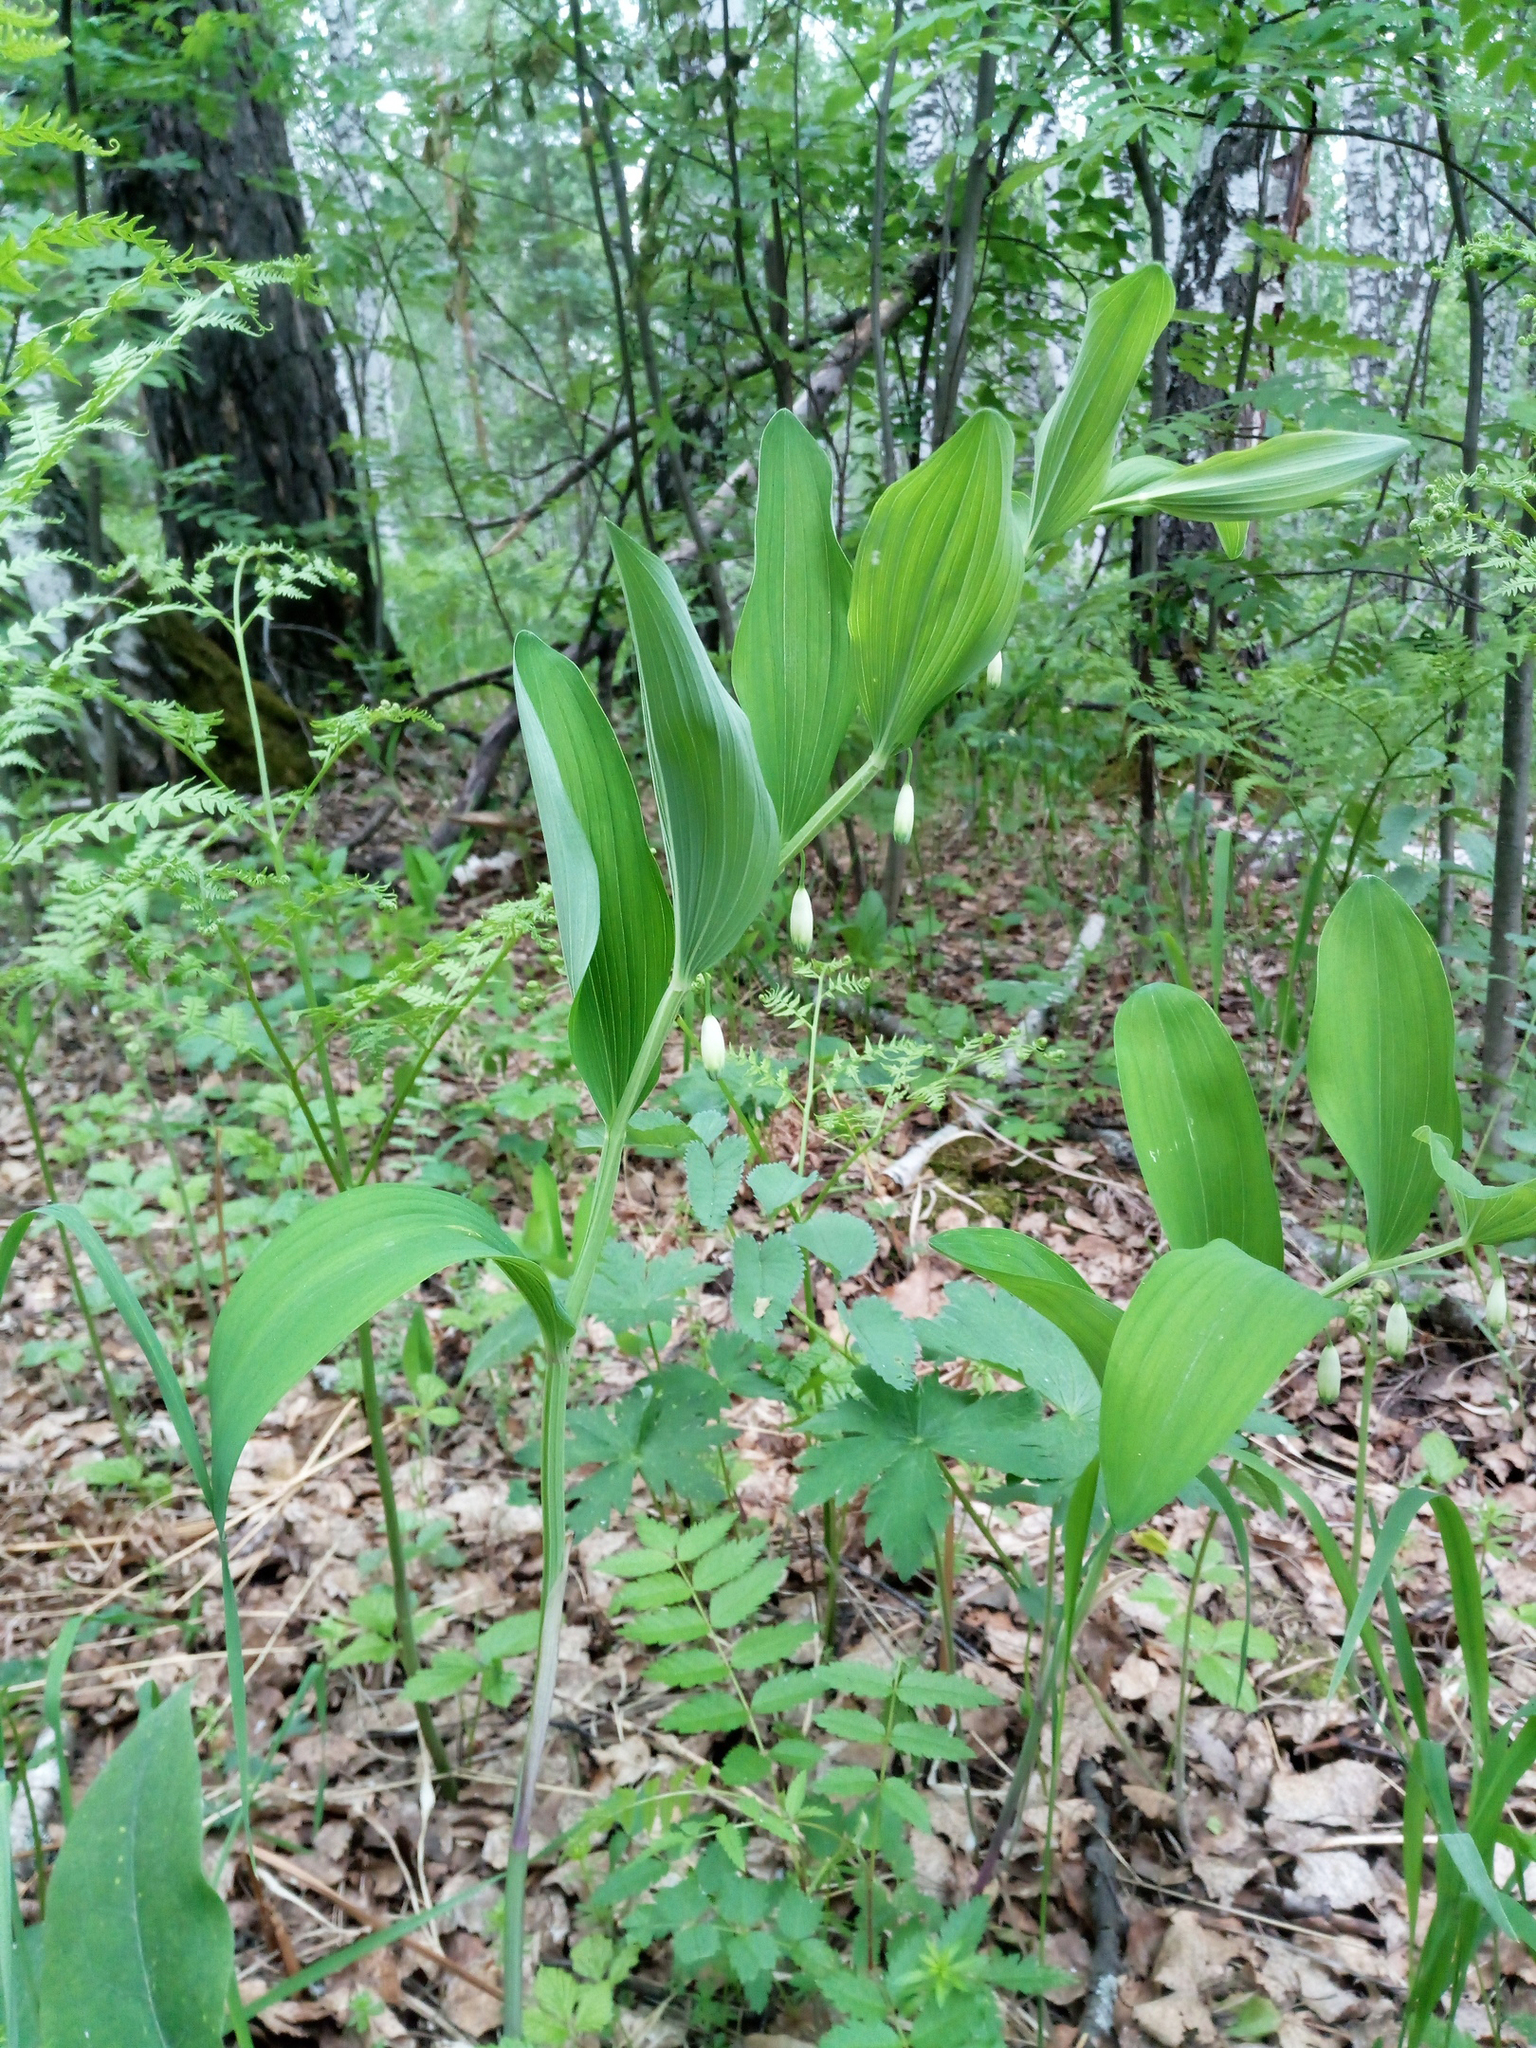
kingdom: Plantae
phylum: Tracheophyta
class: Liliopsida
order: Asparagales
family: Asparagaceae
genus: Polygonatum
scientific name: Polygonatum odoratum
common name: Angular solomon's-seal
